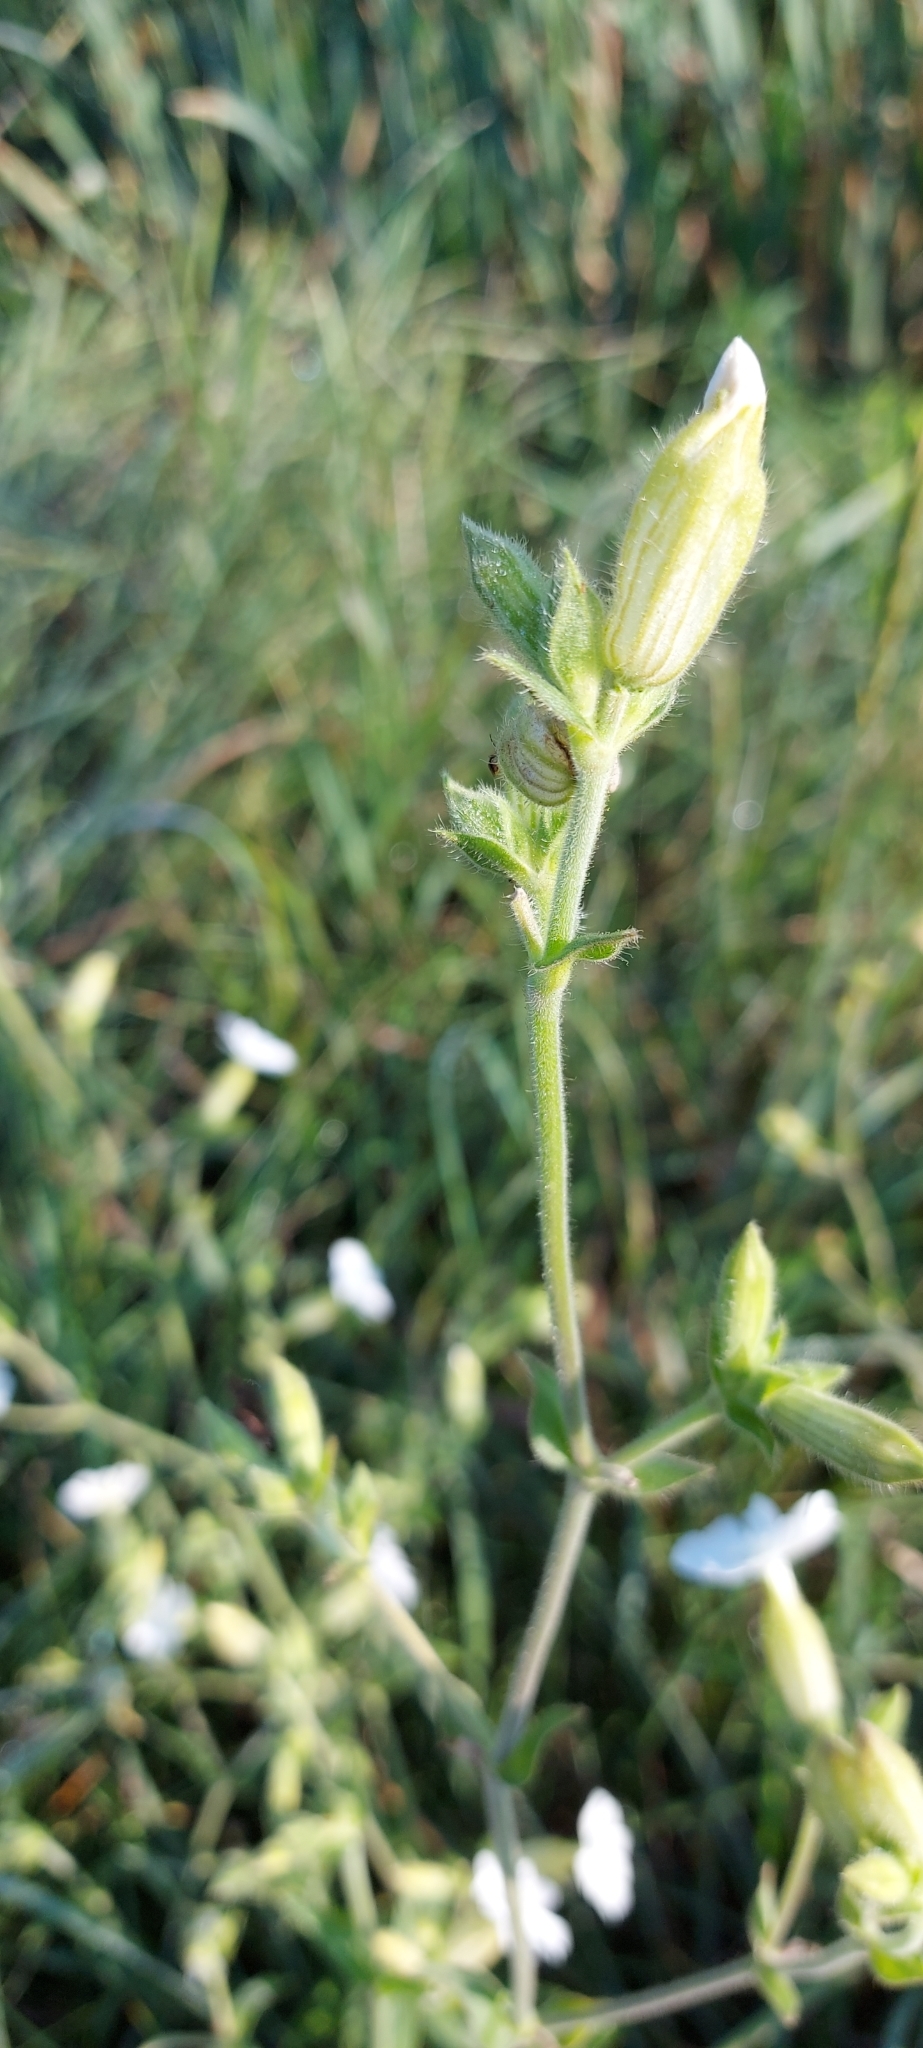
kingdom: Plantae
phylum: Tracheophyta
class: Magnoliopsida
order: Caryophyllales
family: Caryophyllaceae
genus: Silene
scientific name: Silene latifolia
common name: White campion
